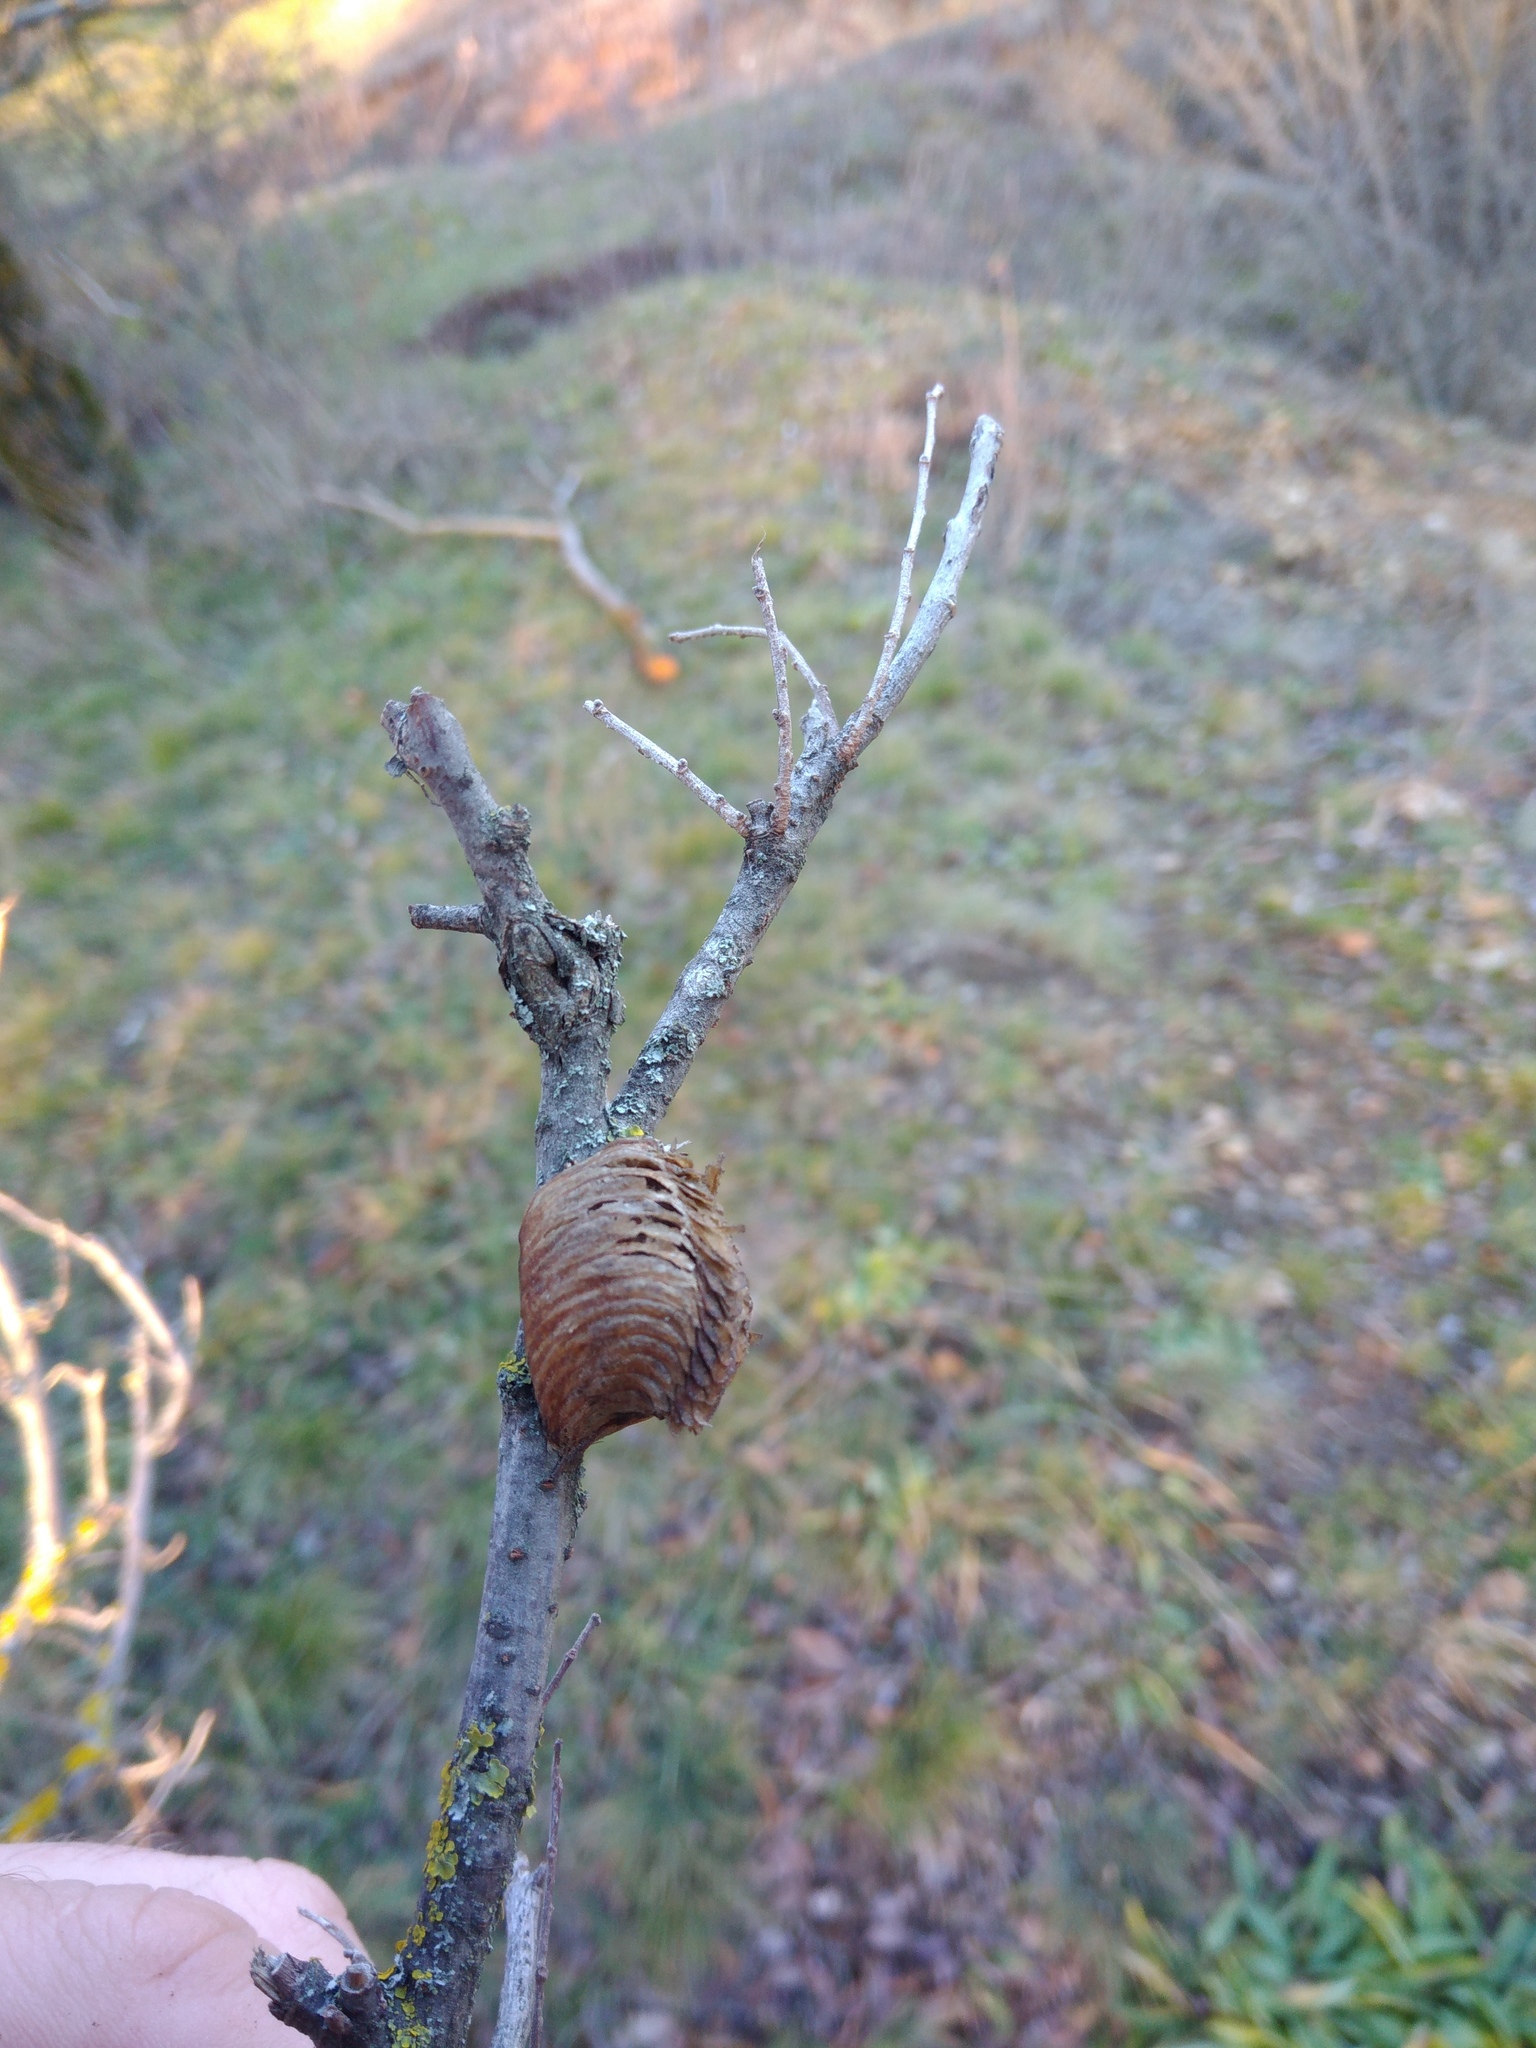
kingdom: Animalia
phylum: Arthropoda
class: Insecta
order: Mantodea
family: Mantidae
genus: Hierodula
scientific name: Hierodula transcaucasica
